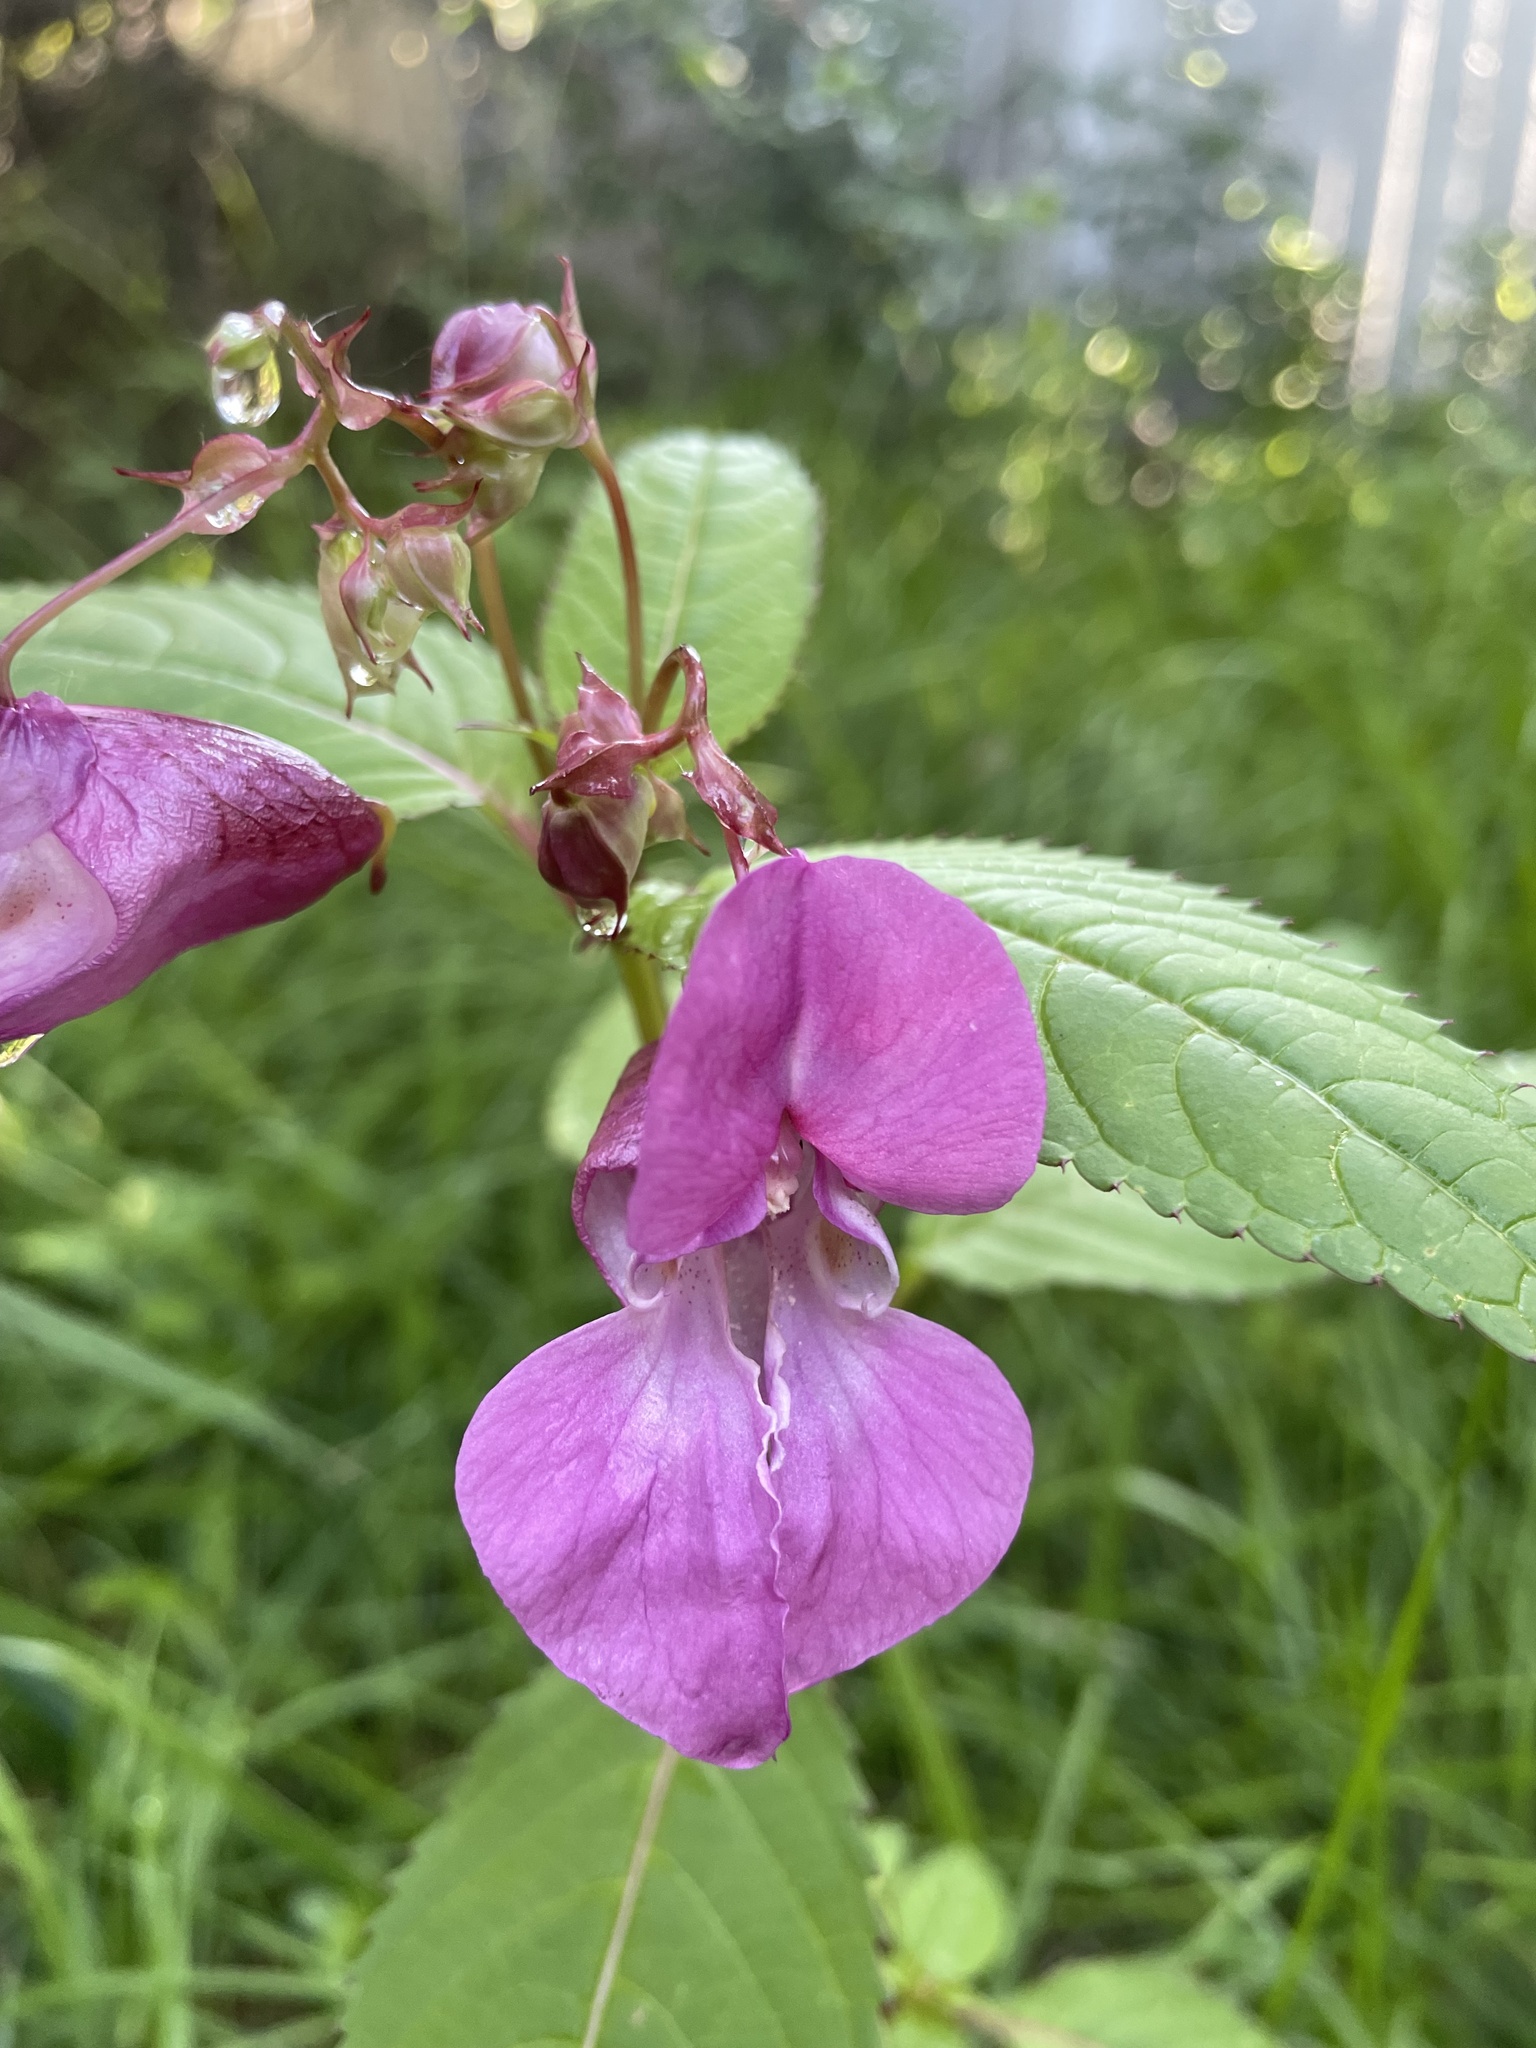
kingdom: Plantae
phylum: Tracheophyta
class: Magnoliopsida
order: Ericales
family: Balsaminaceae
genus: Impatiens
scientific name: Impatiens glandulifera
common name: Himalayan balsam
